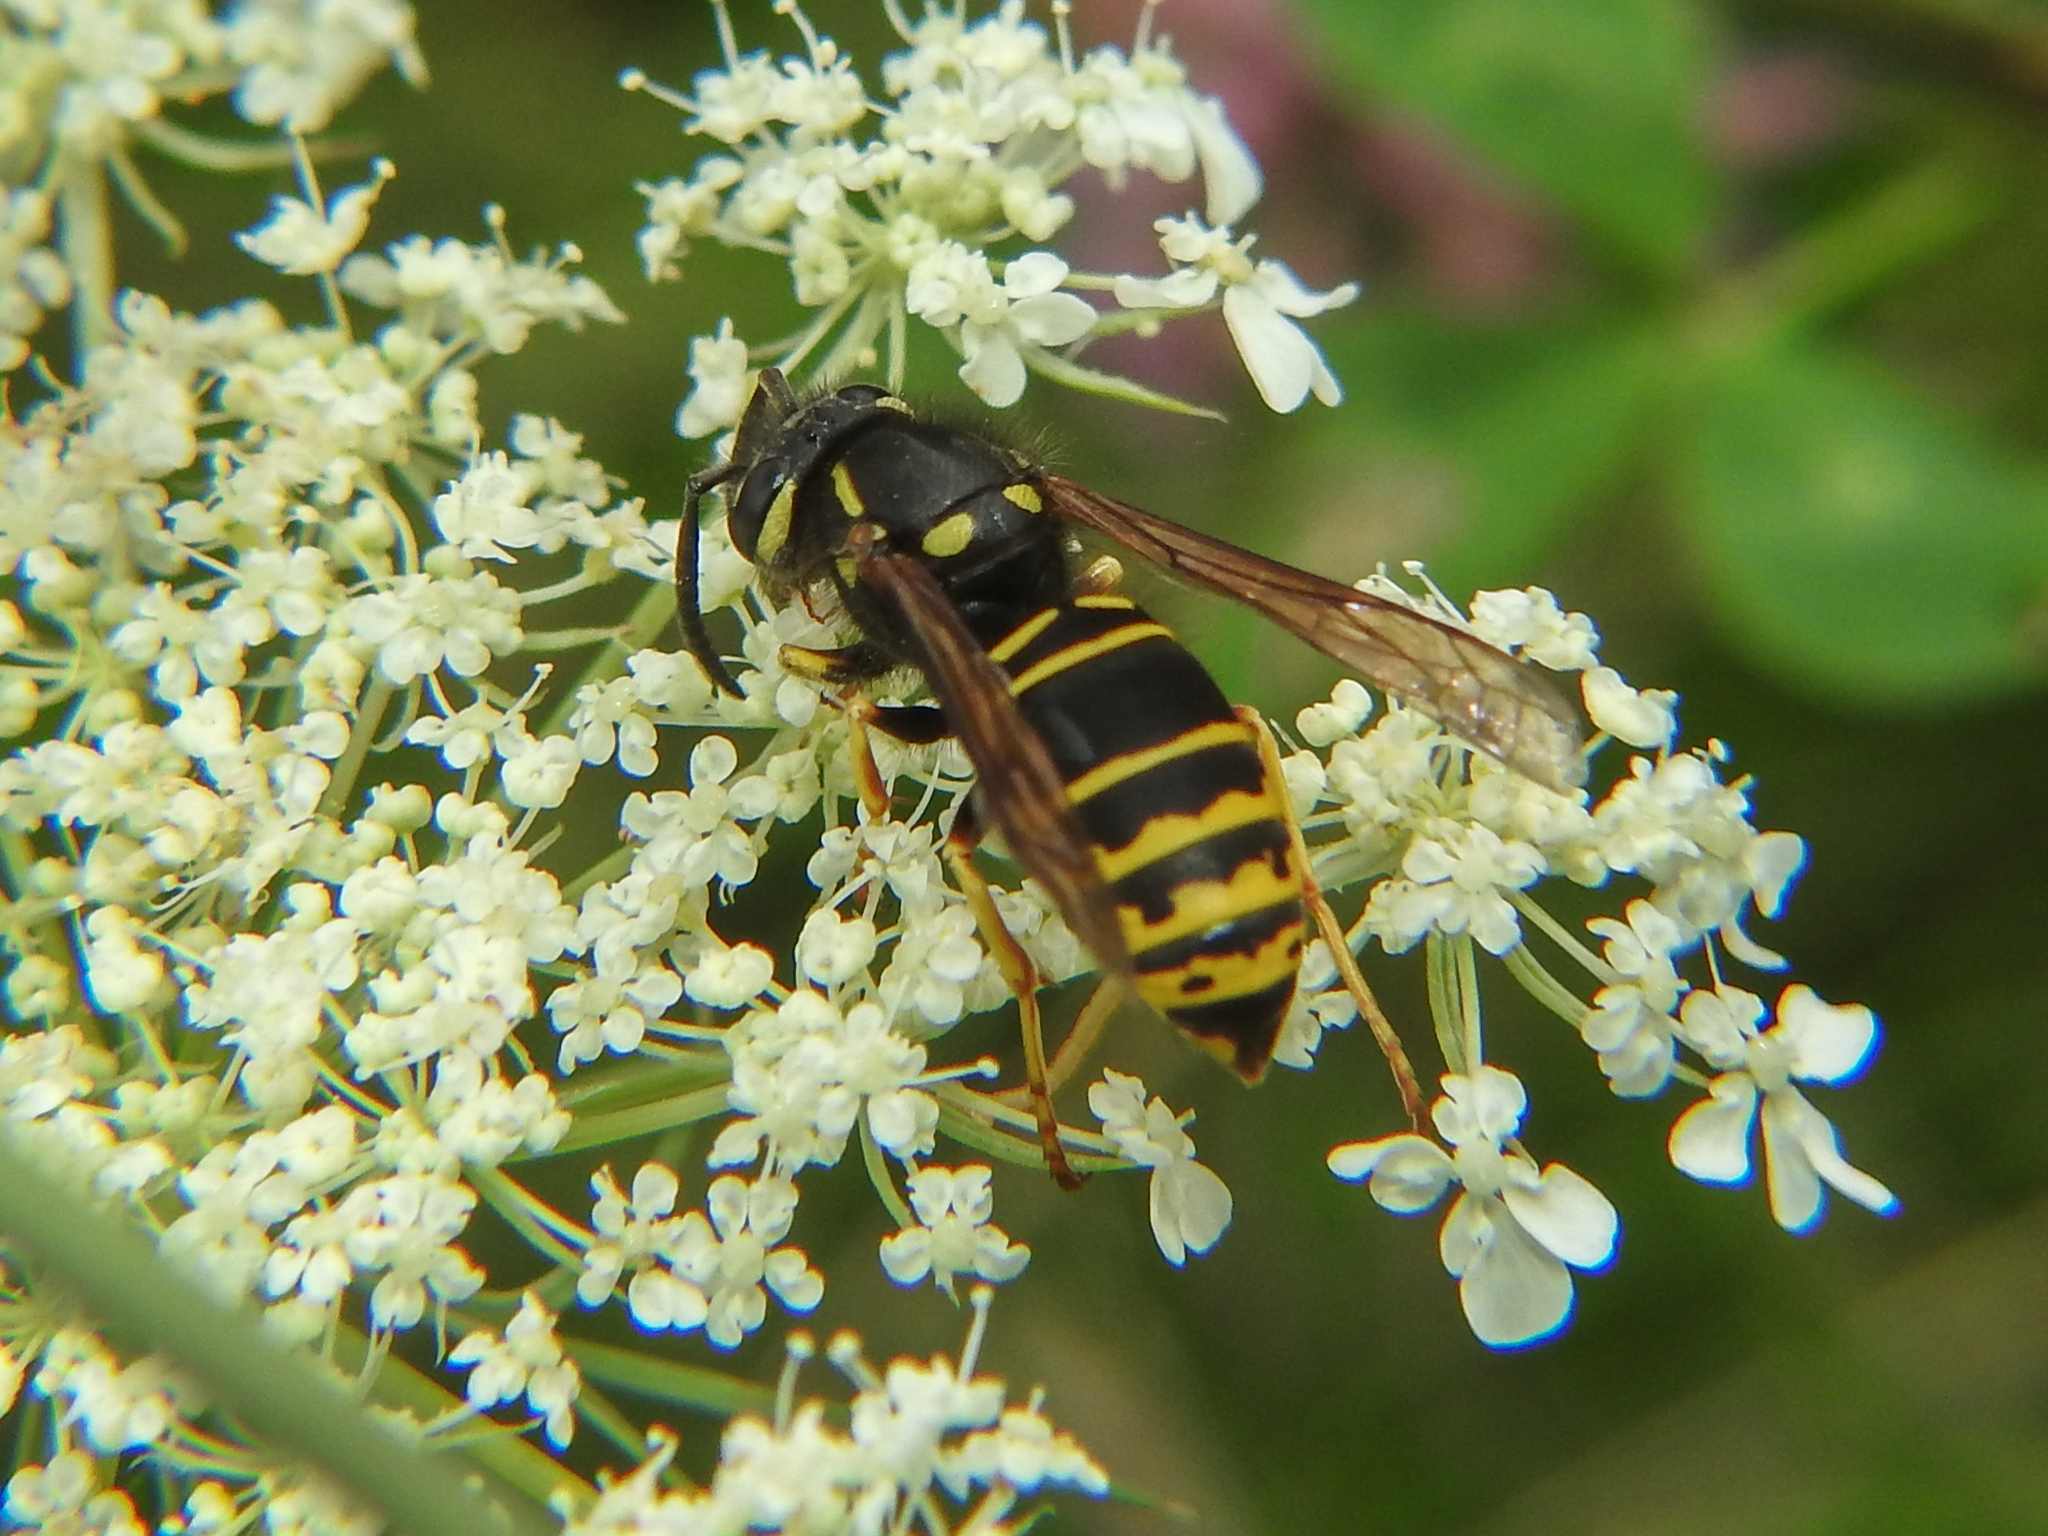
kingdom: Animalia
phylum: Arthropoda
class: Insecta
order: Hymenoptera
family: Vespidae
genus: Vespula
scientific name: Vespula vidua
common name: Widow yellowjacket
